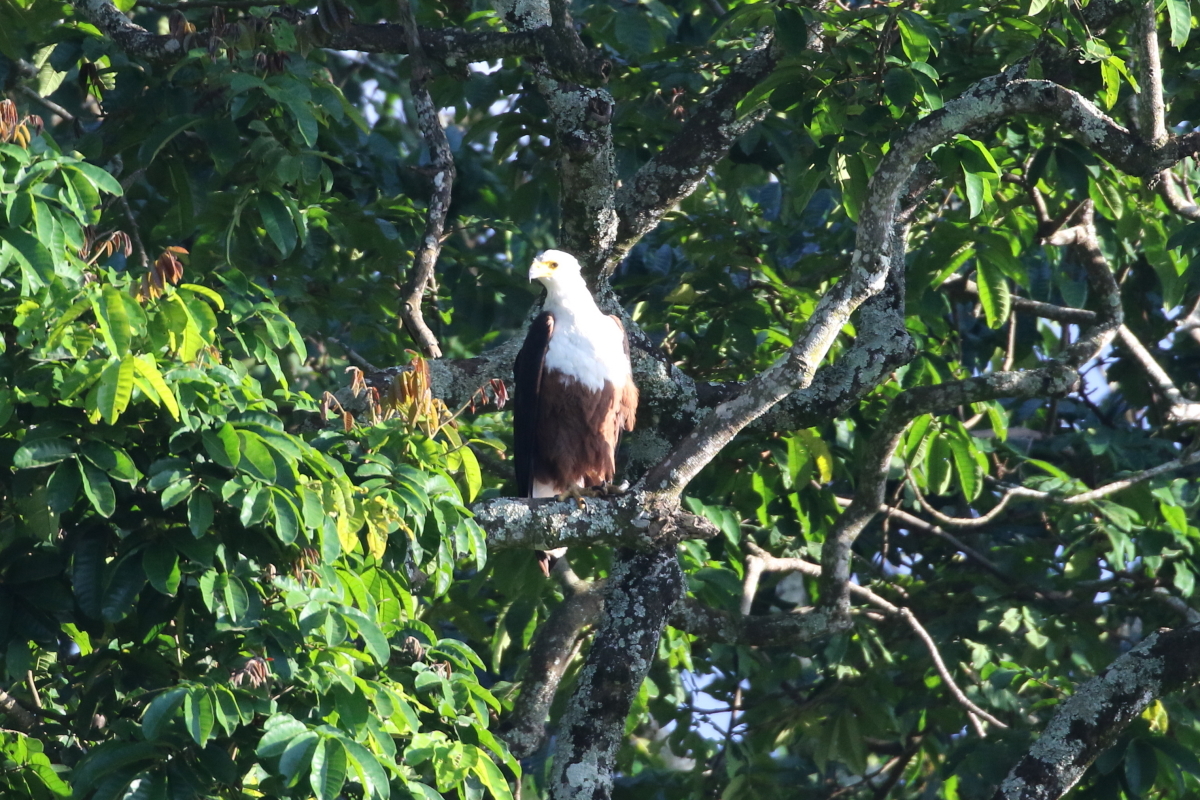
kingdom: Animalia
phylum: Chordata
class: Aves
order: Accipitriformes
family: Accipitridae
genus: Haliaeetus
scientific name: Haliaeetus vocifer
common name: African fish eagle
